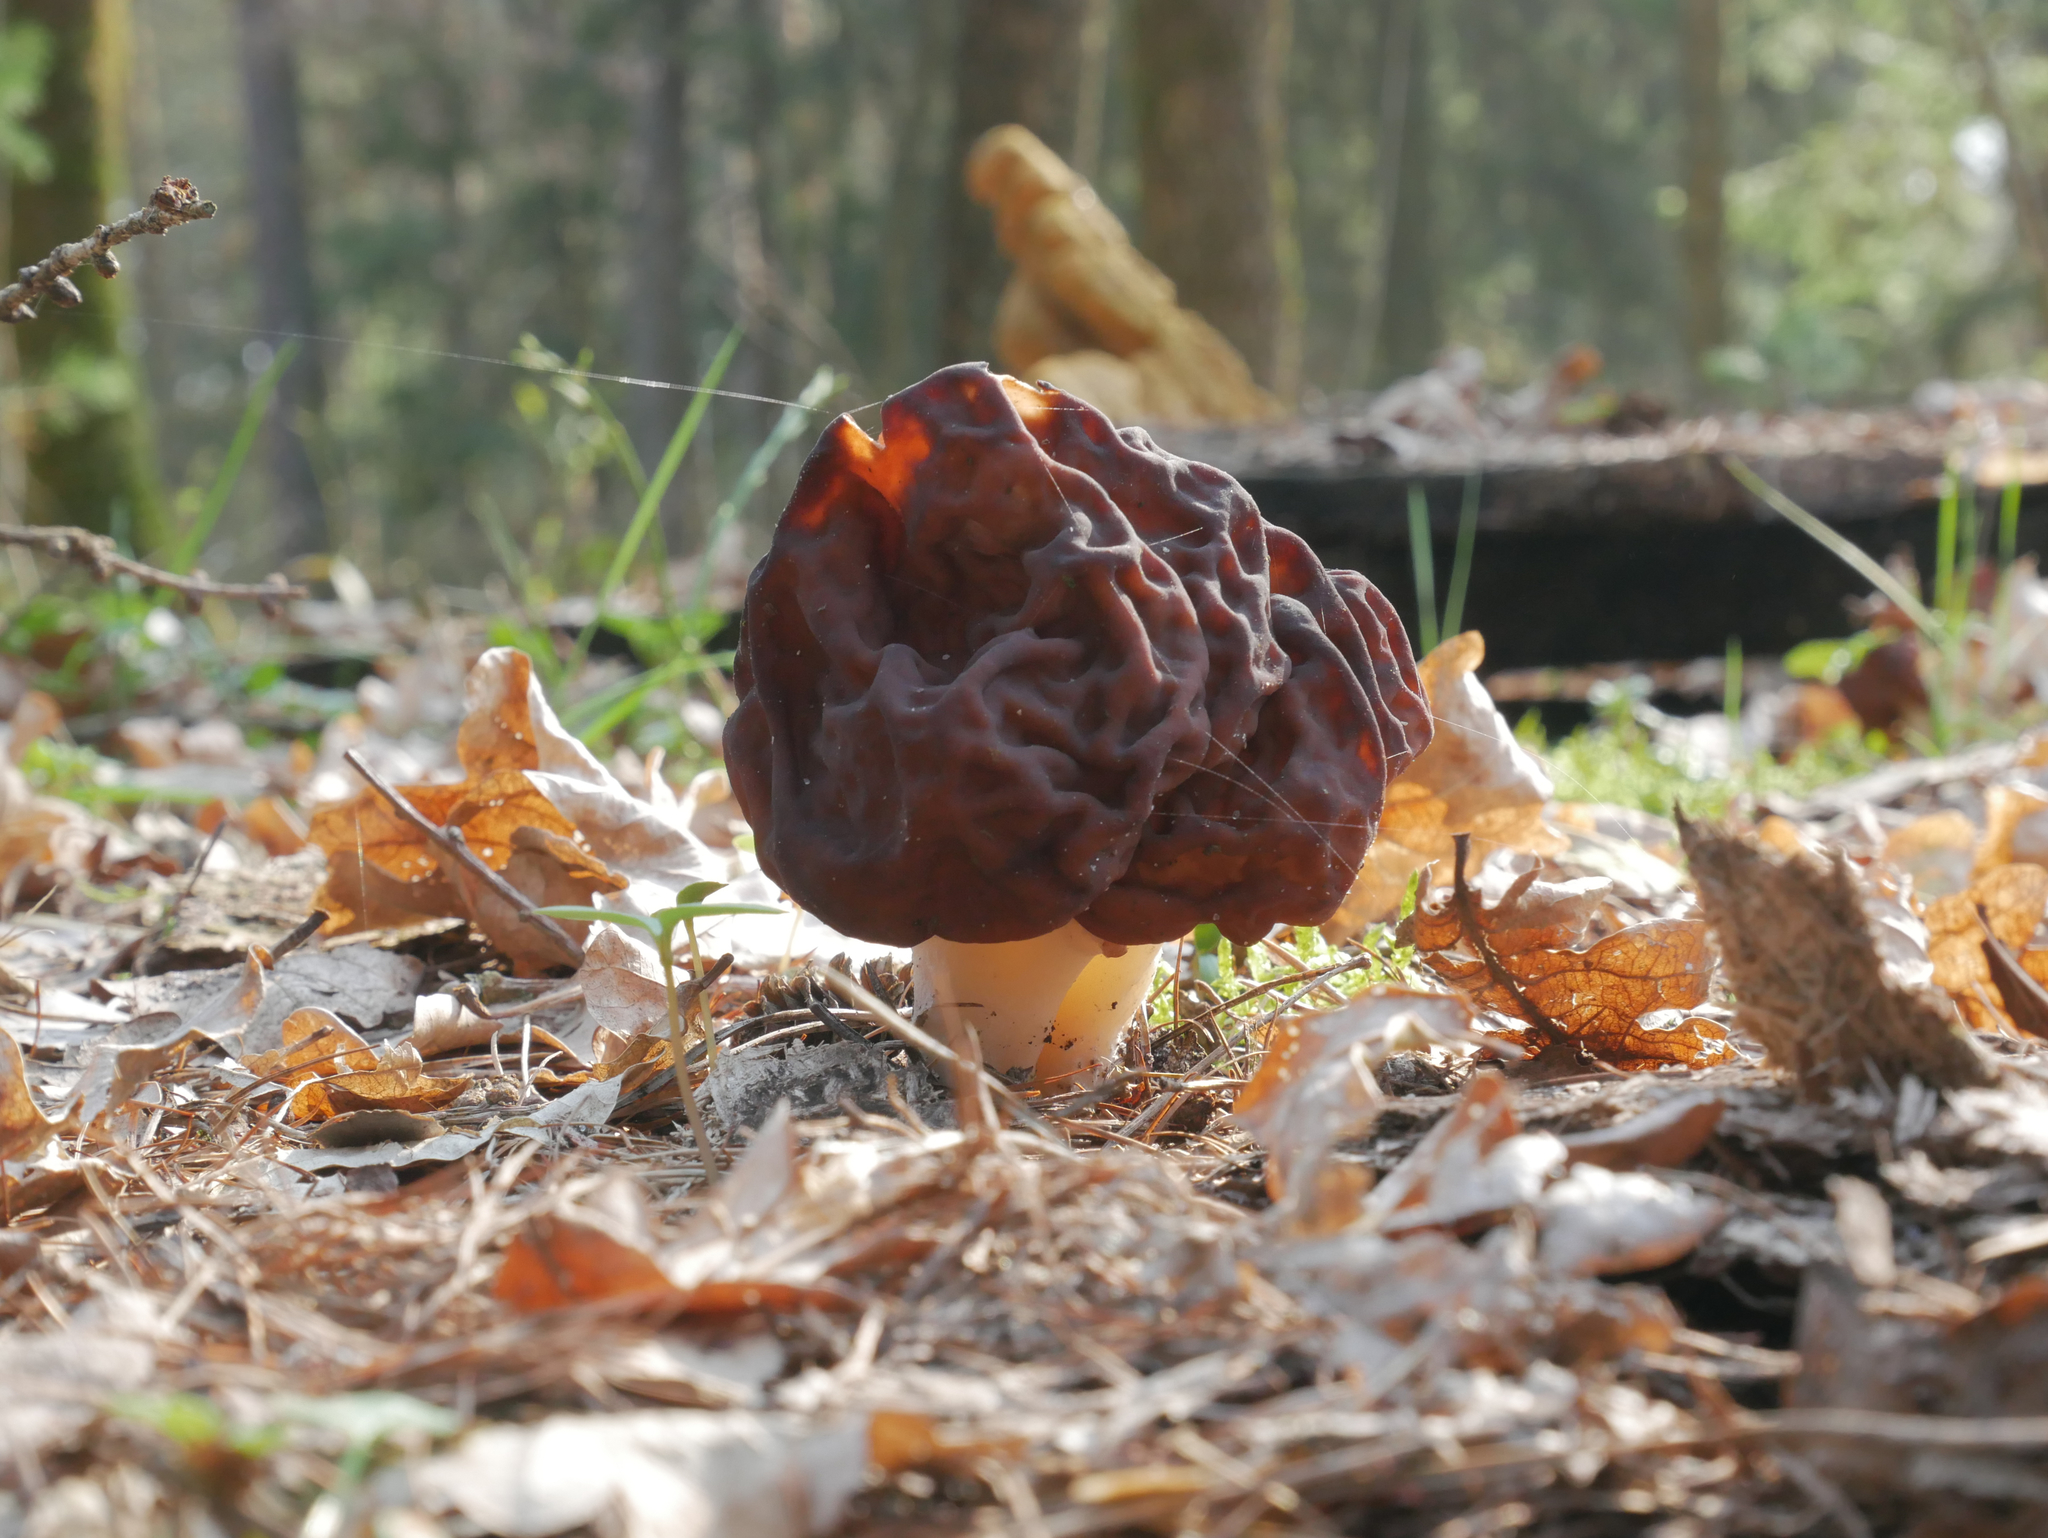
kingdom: Fungi
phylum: Ascomycota
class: Pezizomycetes
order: Pezizales
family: Discinaceae
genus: Gyromitra
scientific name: Gyromitra esculenta
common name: False morel
